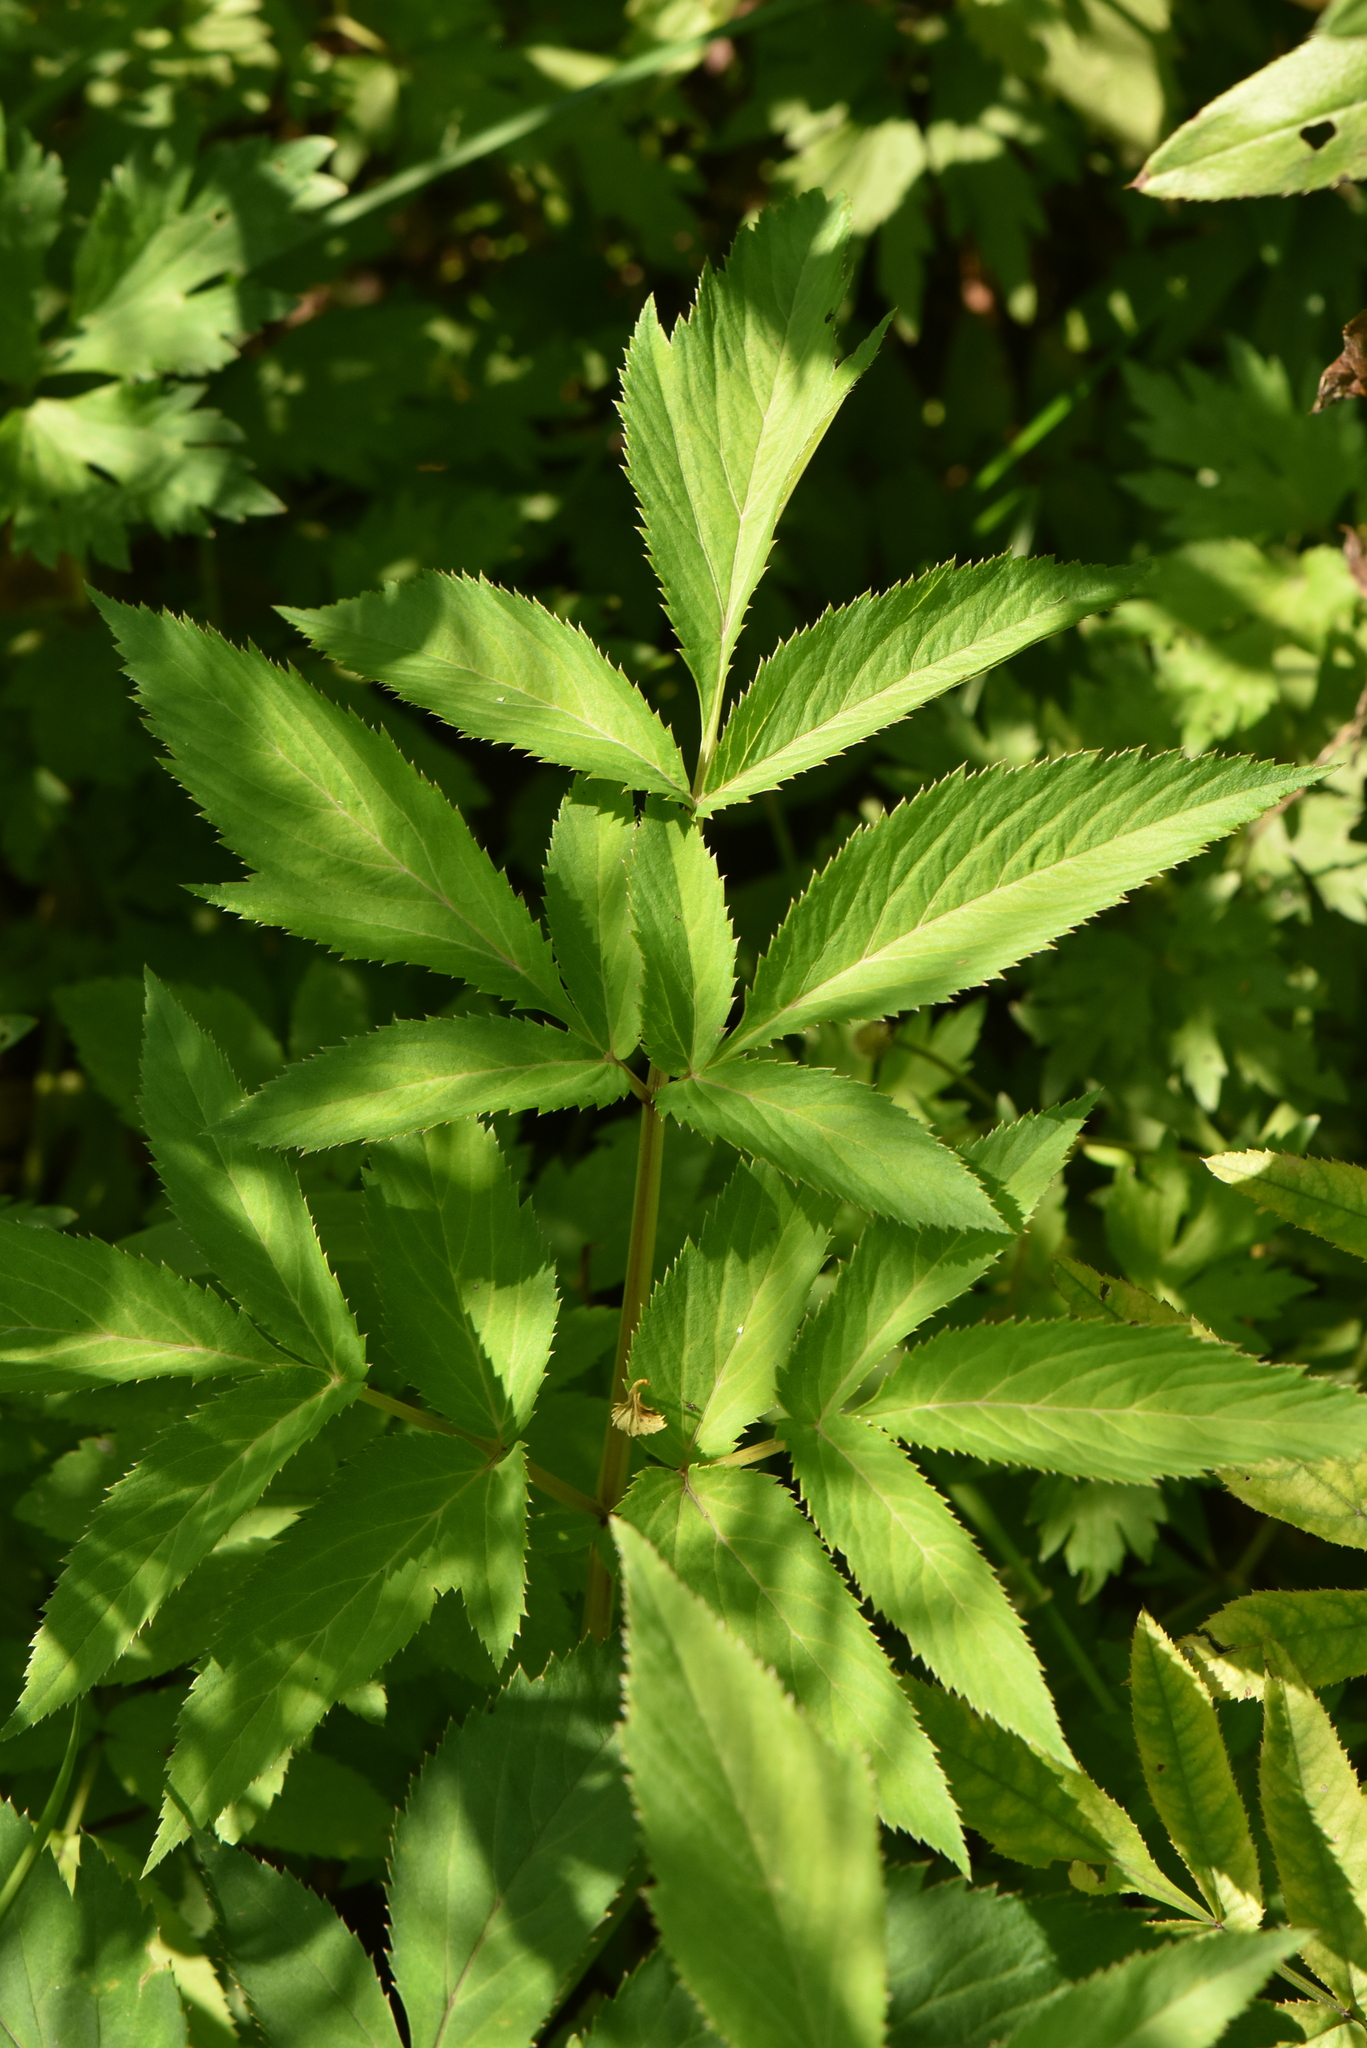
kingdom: Plantae
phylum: Tracheophyta
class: Magnoliopsida
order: Apiales
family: Apiaceae
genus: Angelica
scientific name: Angelica sylvestris
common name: Wild angelica
